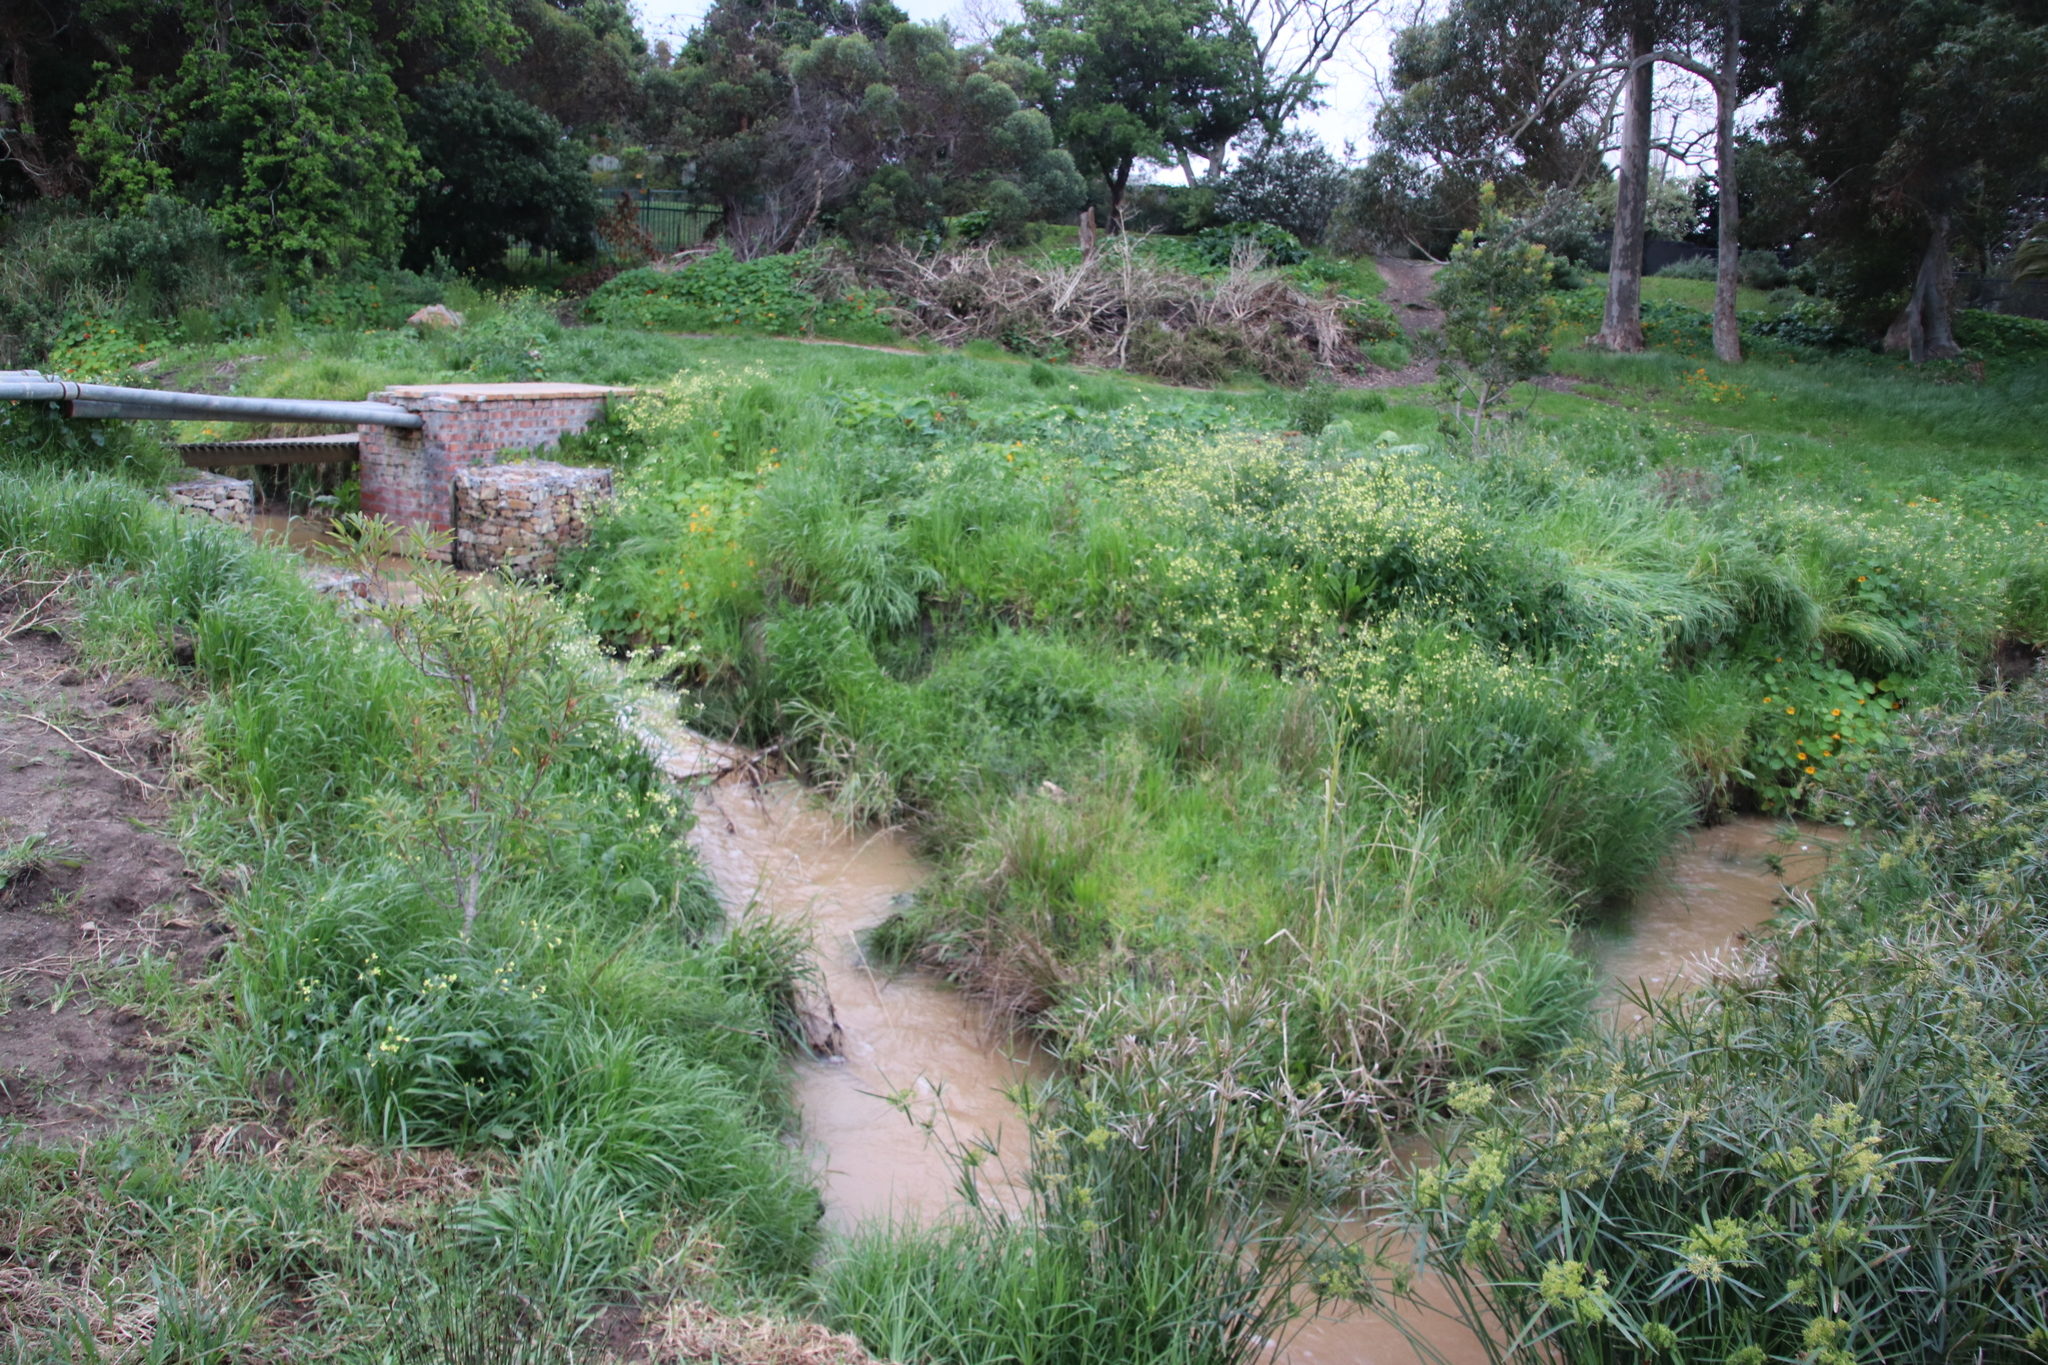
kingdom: Plantae
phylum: Tracheophyta
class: Magnoliopsida
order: Brassicales
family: Brassicaceae
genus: Raphanus
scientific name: Raphanus raphanistrum
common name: Wild radish
